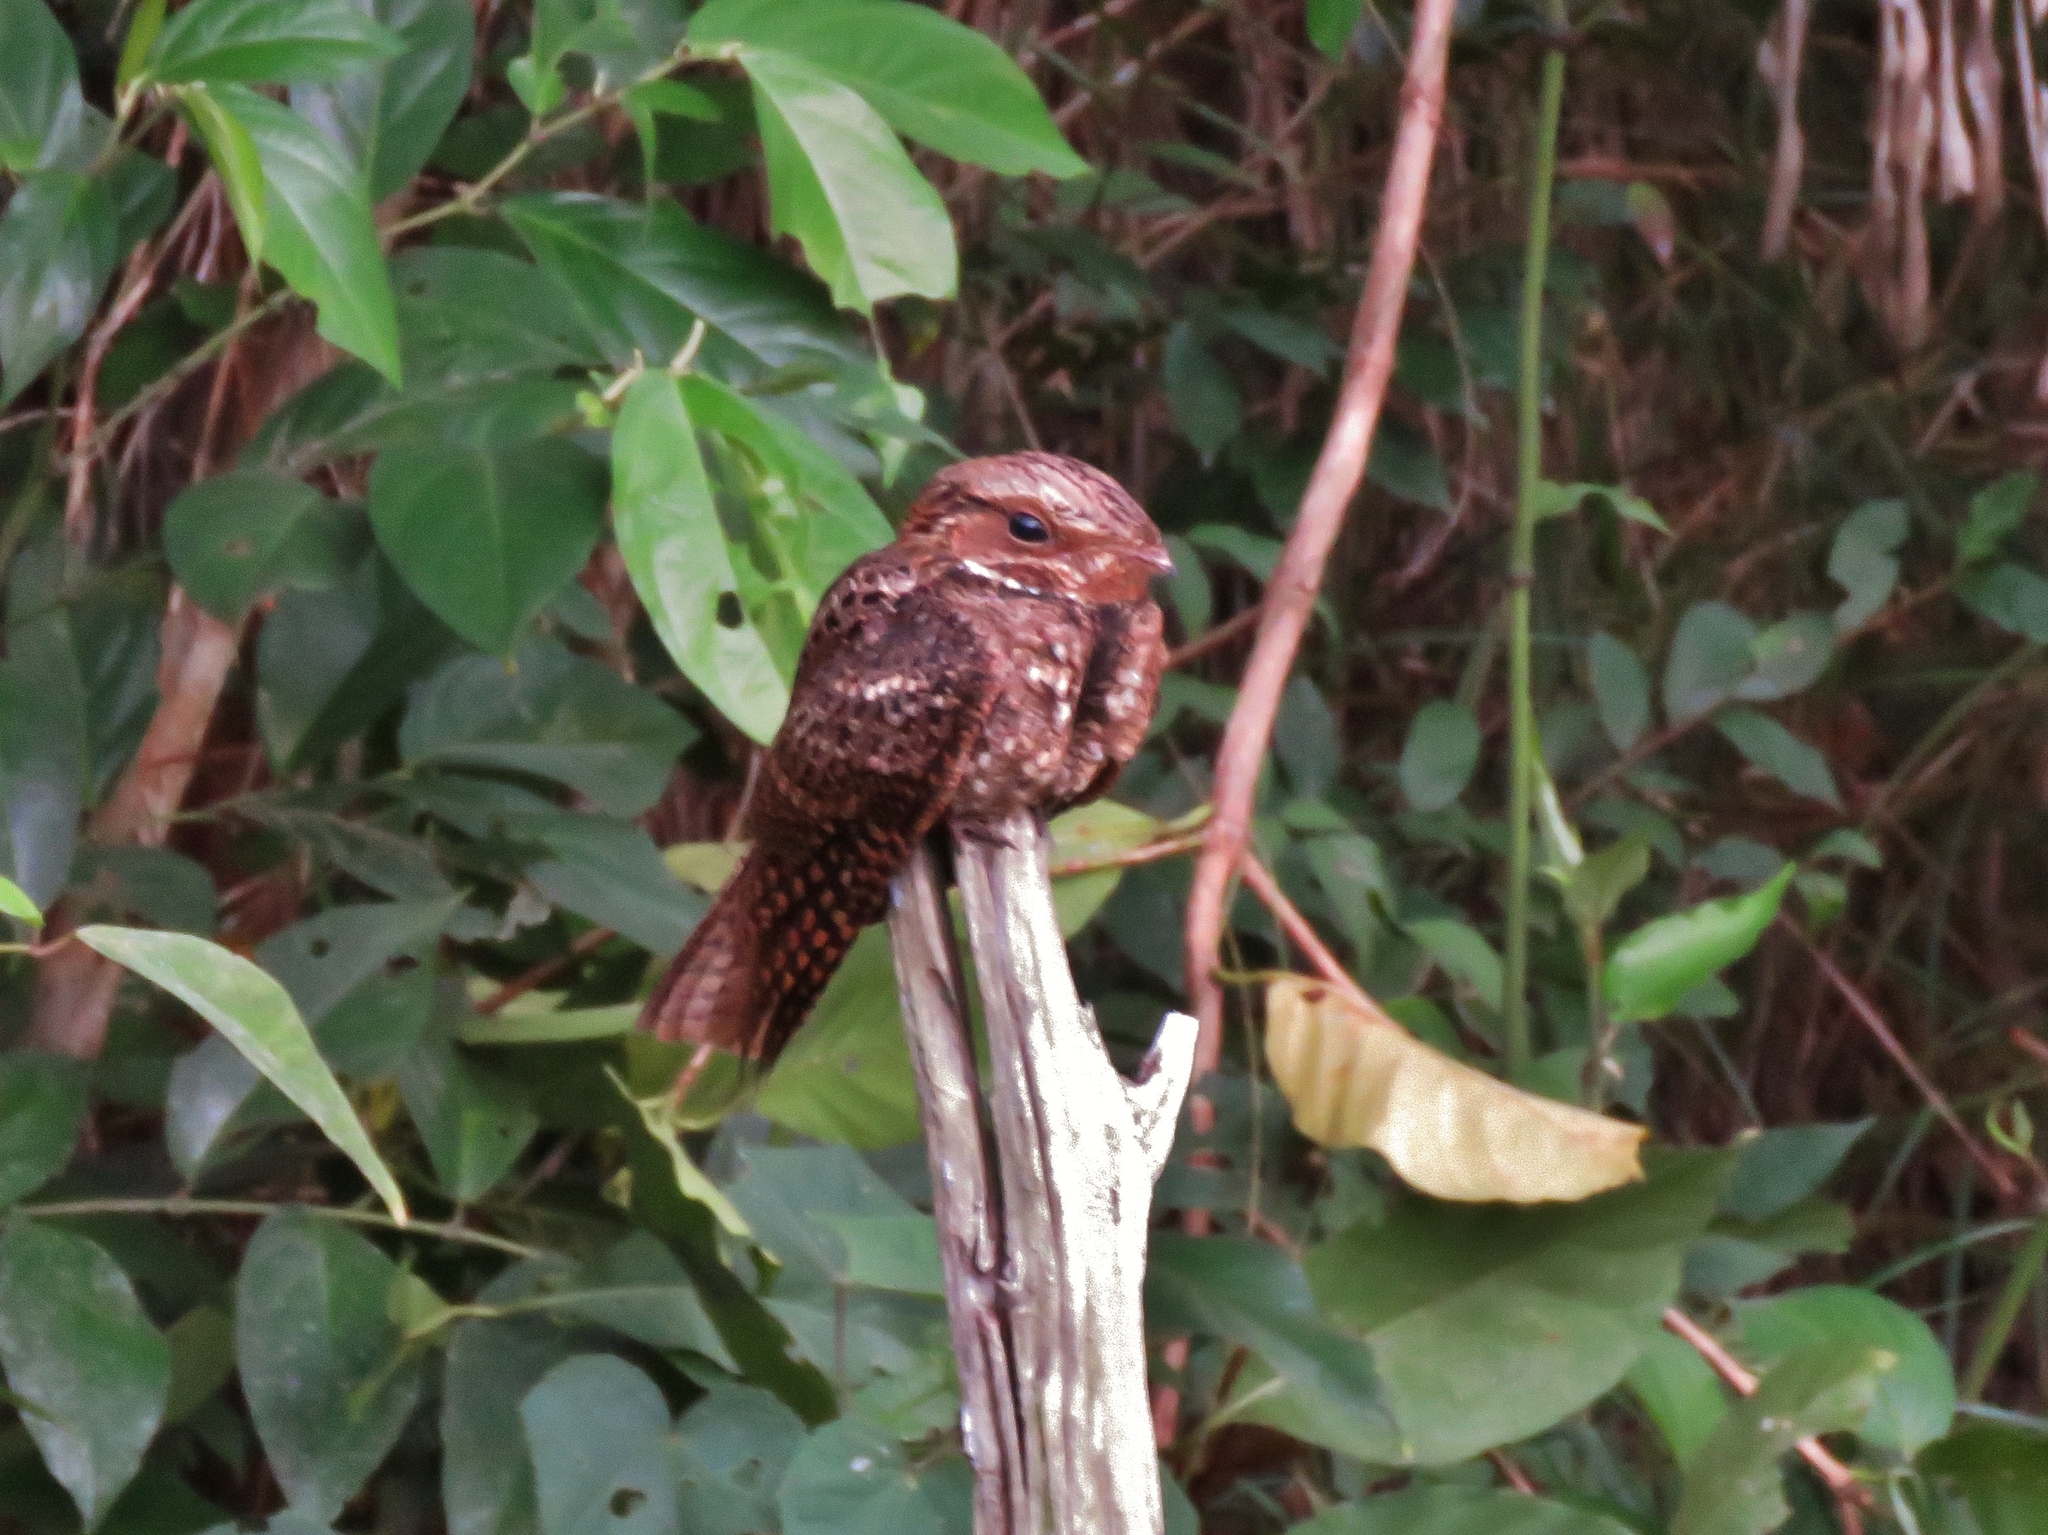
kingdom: Animalia
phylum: Chordata
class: Aves
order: Caprimulgiformes
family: Caprimulgidae
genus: Antrostomus
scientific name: Antrostomus carolinensis
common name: Chuck-will's-widow
